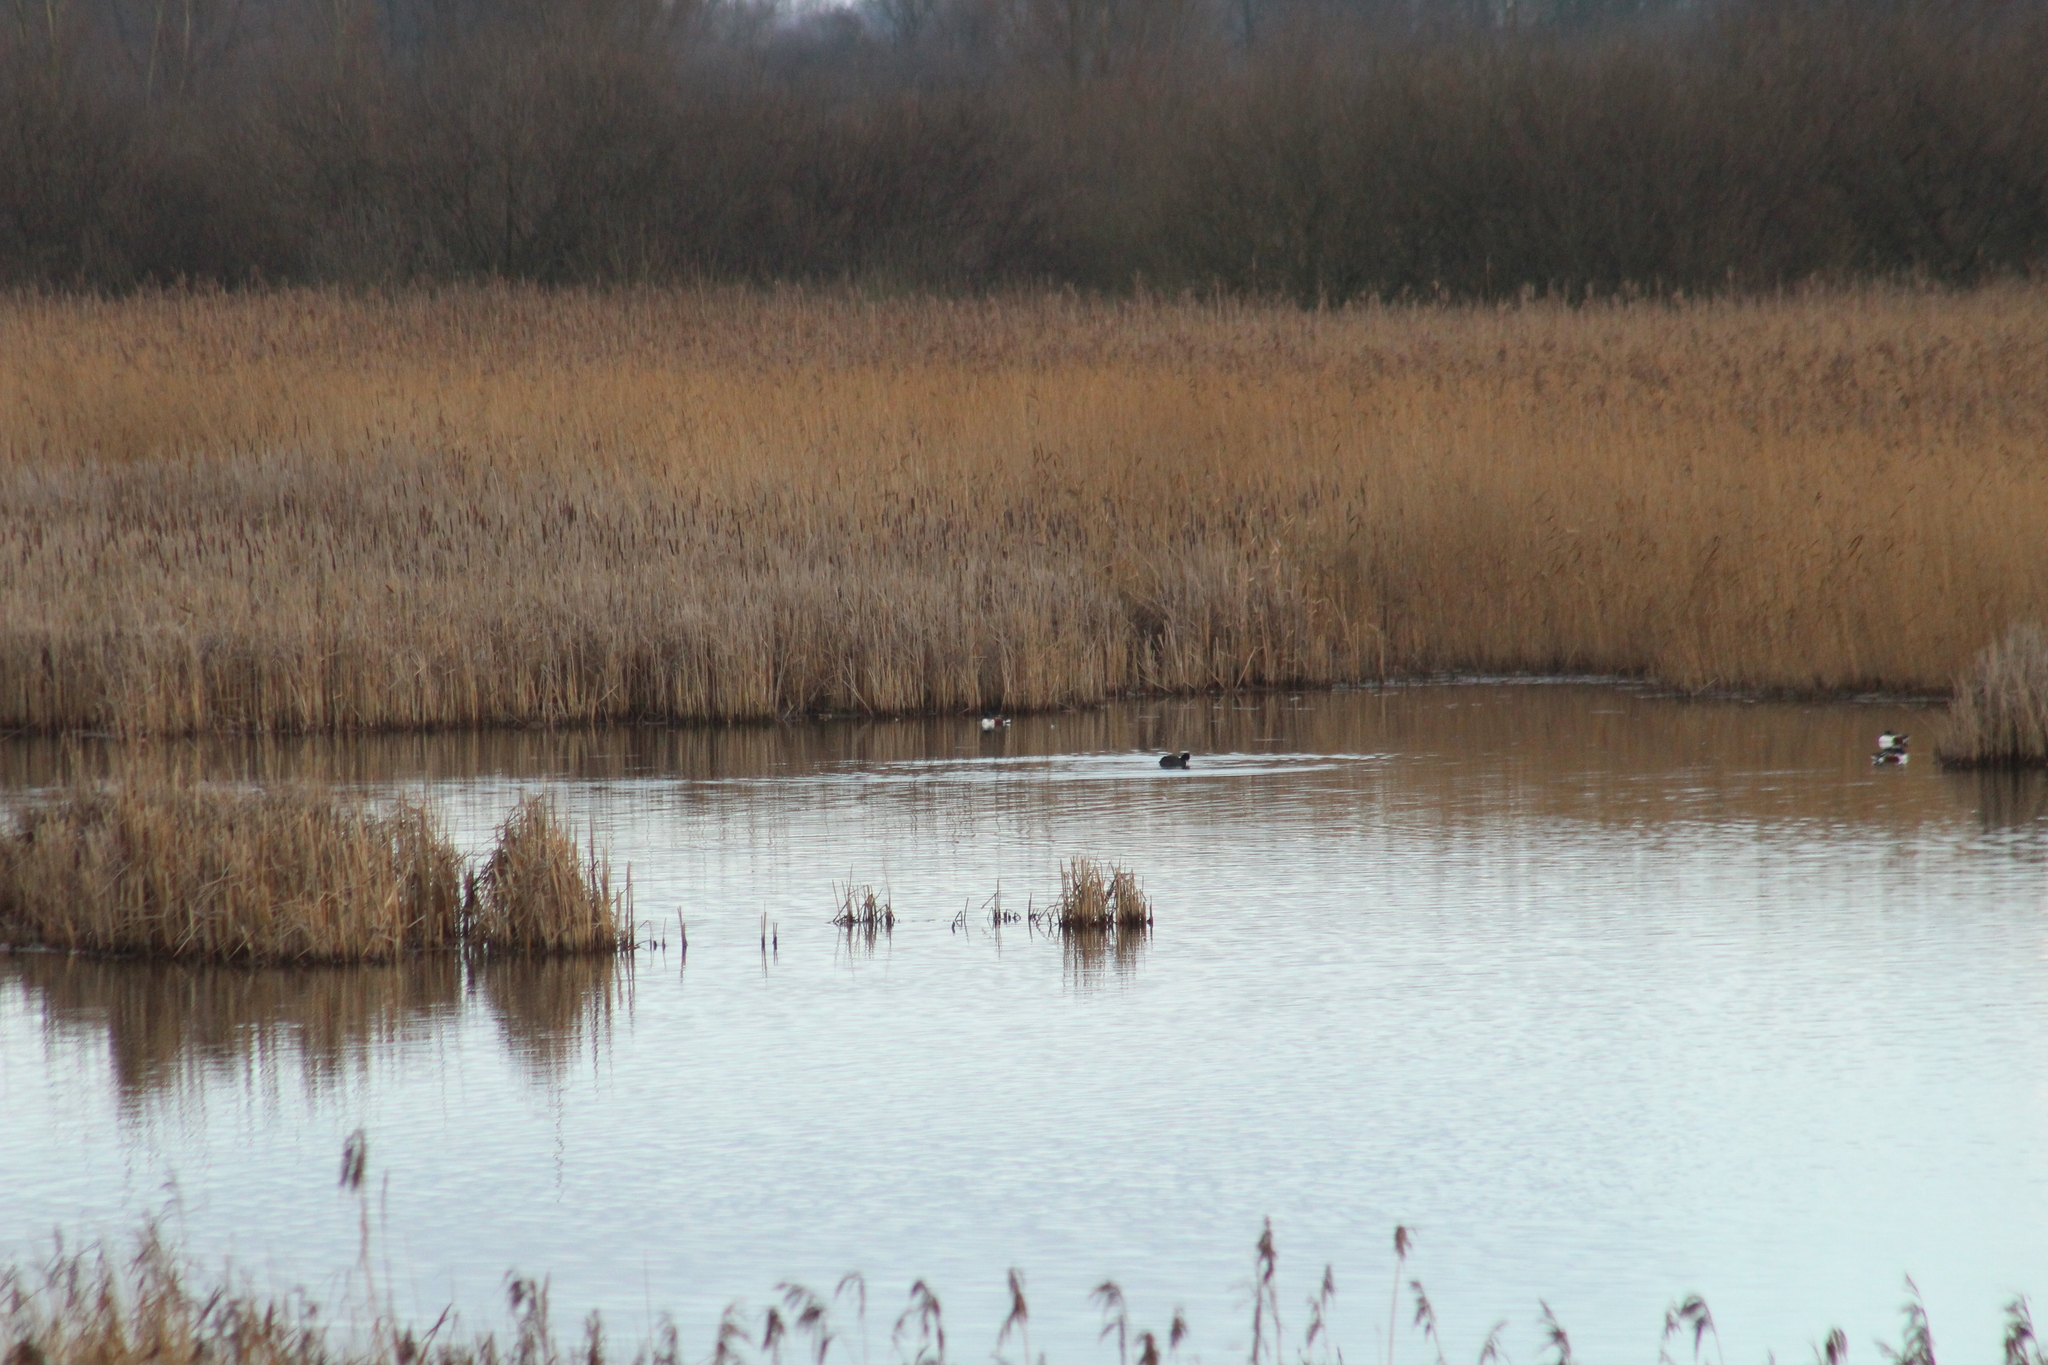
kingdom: Animalia
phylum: Chordata
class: Aves
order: Anseriformes
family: Anatidae
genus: Spatula
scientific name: Spatula clypeata
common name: Northern shoveler
